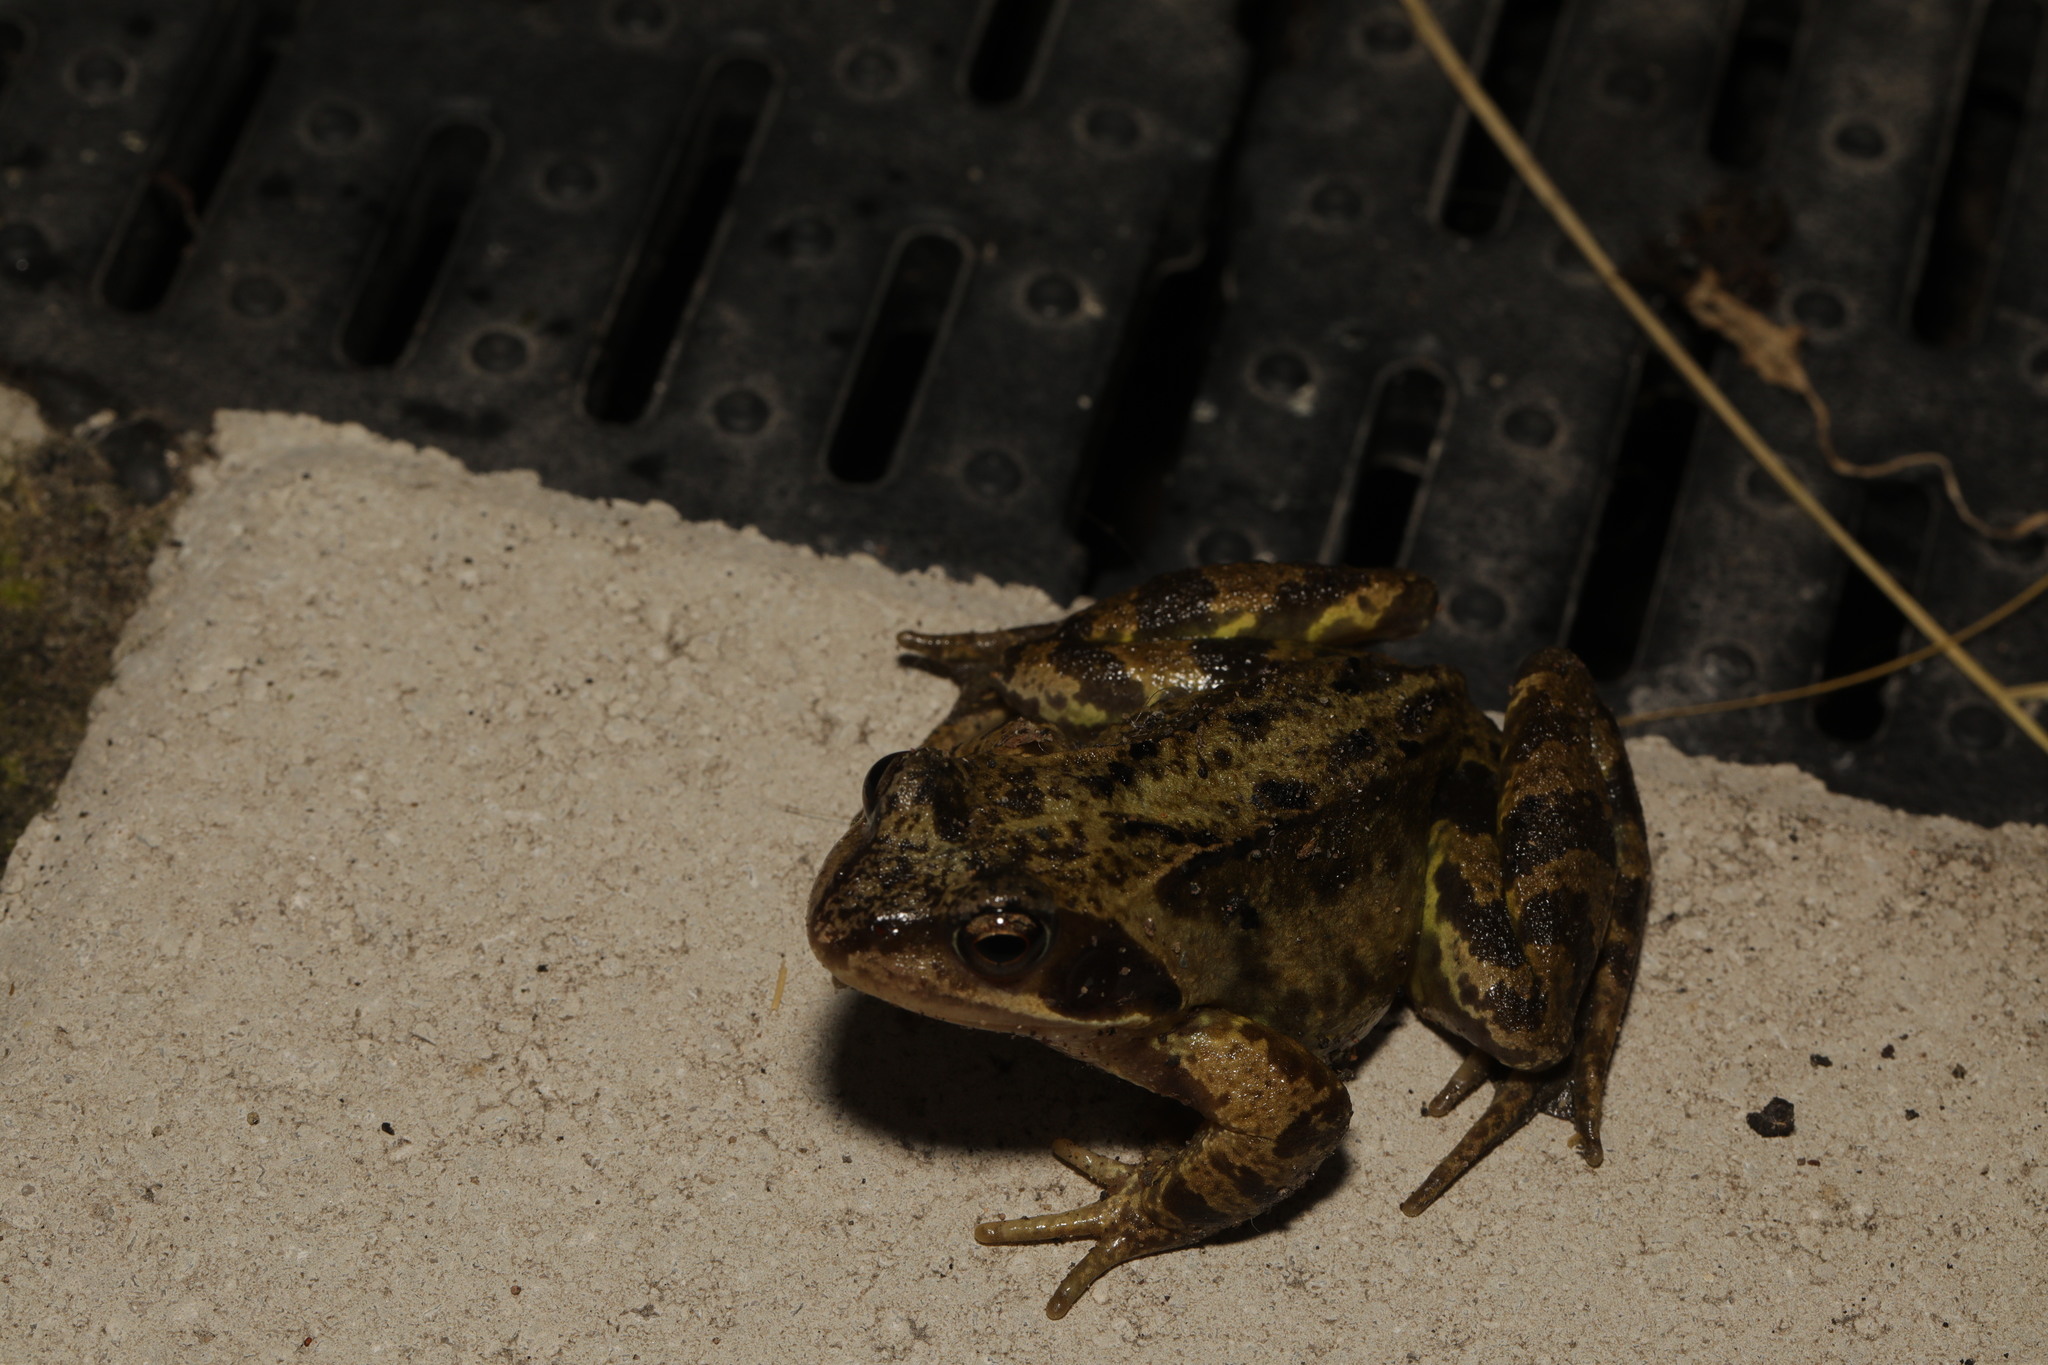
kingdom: Animalia
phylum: Chordata
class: Amphibia
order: Anura
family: Ranidae
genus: Rana
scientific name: Rana temporaria
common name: Common frog
